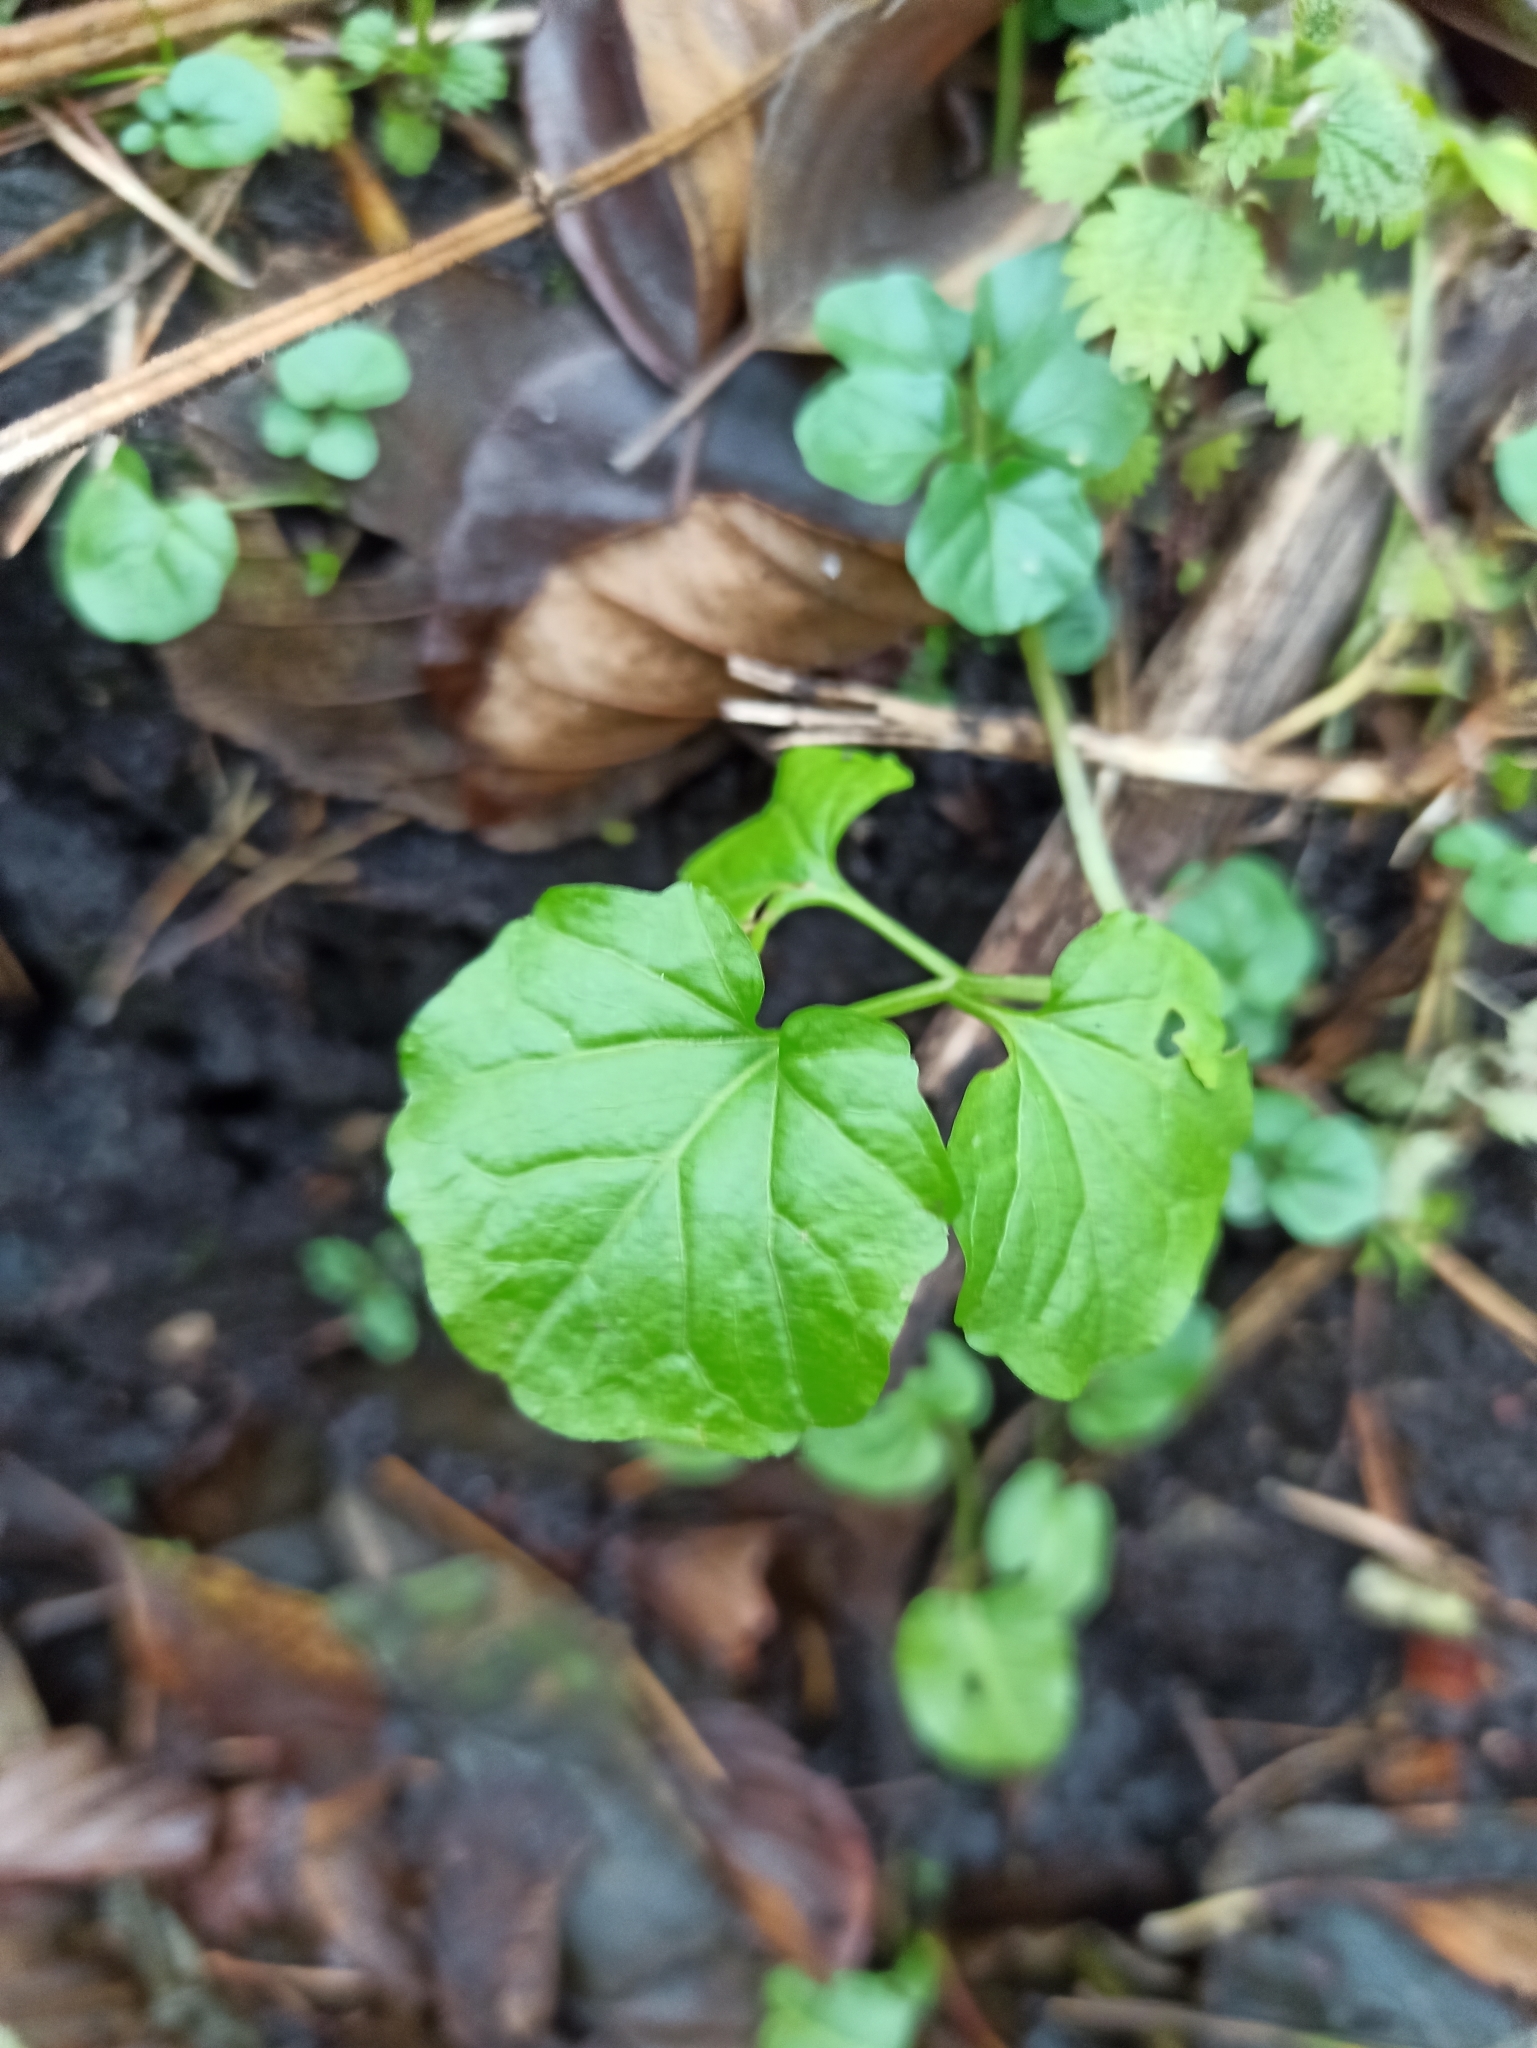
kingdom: Plantae
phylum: Tracheophyta
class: Magnoliopsida
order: Brassicales
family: Brassicaceae
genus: Cardamine
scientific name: Cardamine amara
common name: Large bitter-cress
